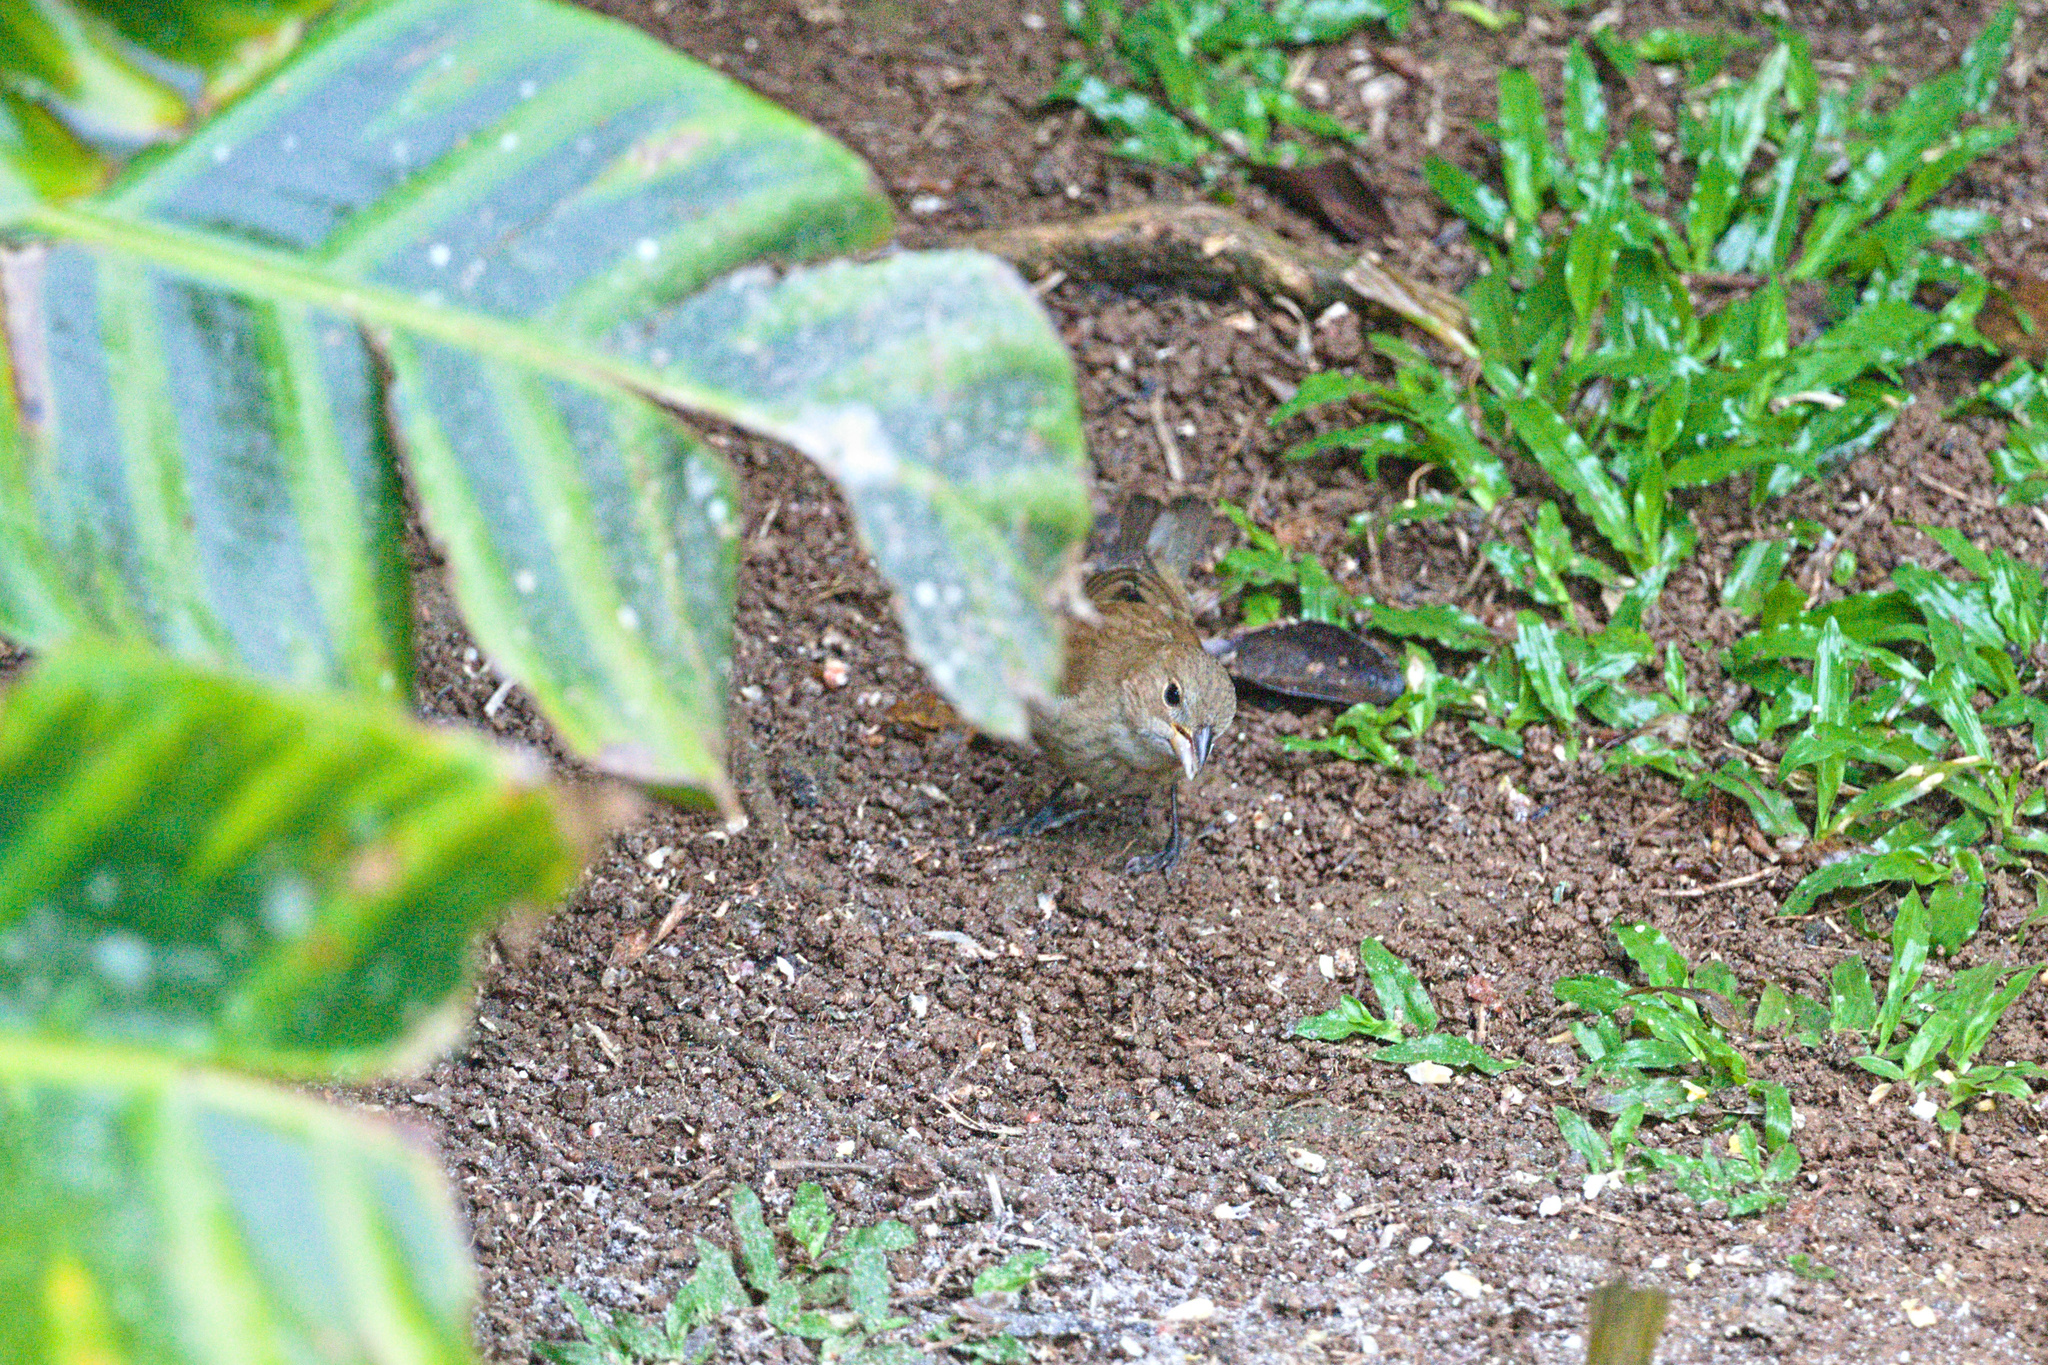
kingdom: Animalia
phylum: Chordata
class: Aves
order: Passeriformes
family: Cardinalidae
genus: Passerina
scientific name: Passerina cyanea
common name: Indigo bunting
